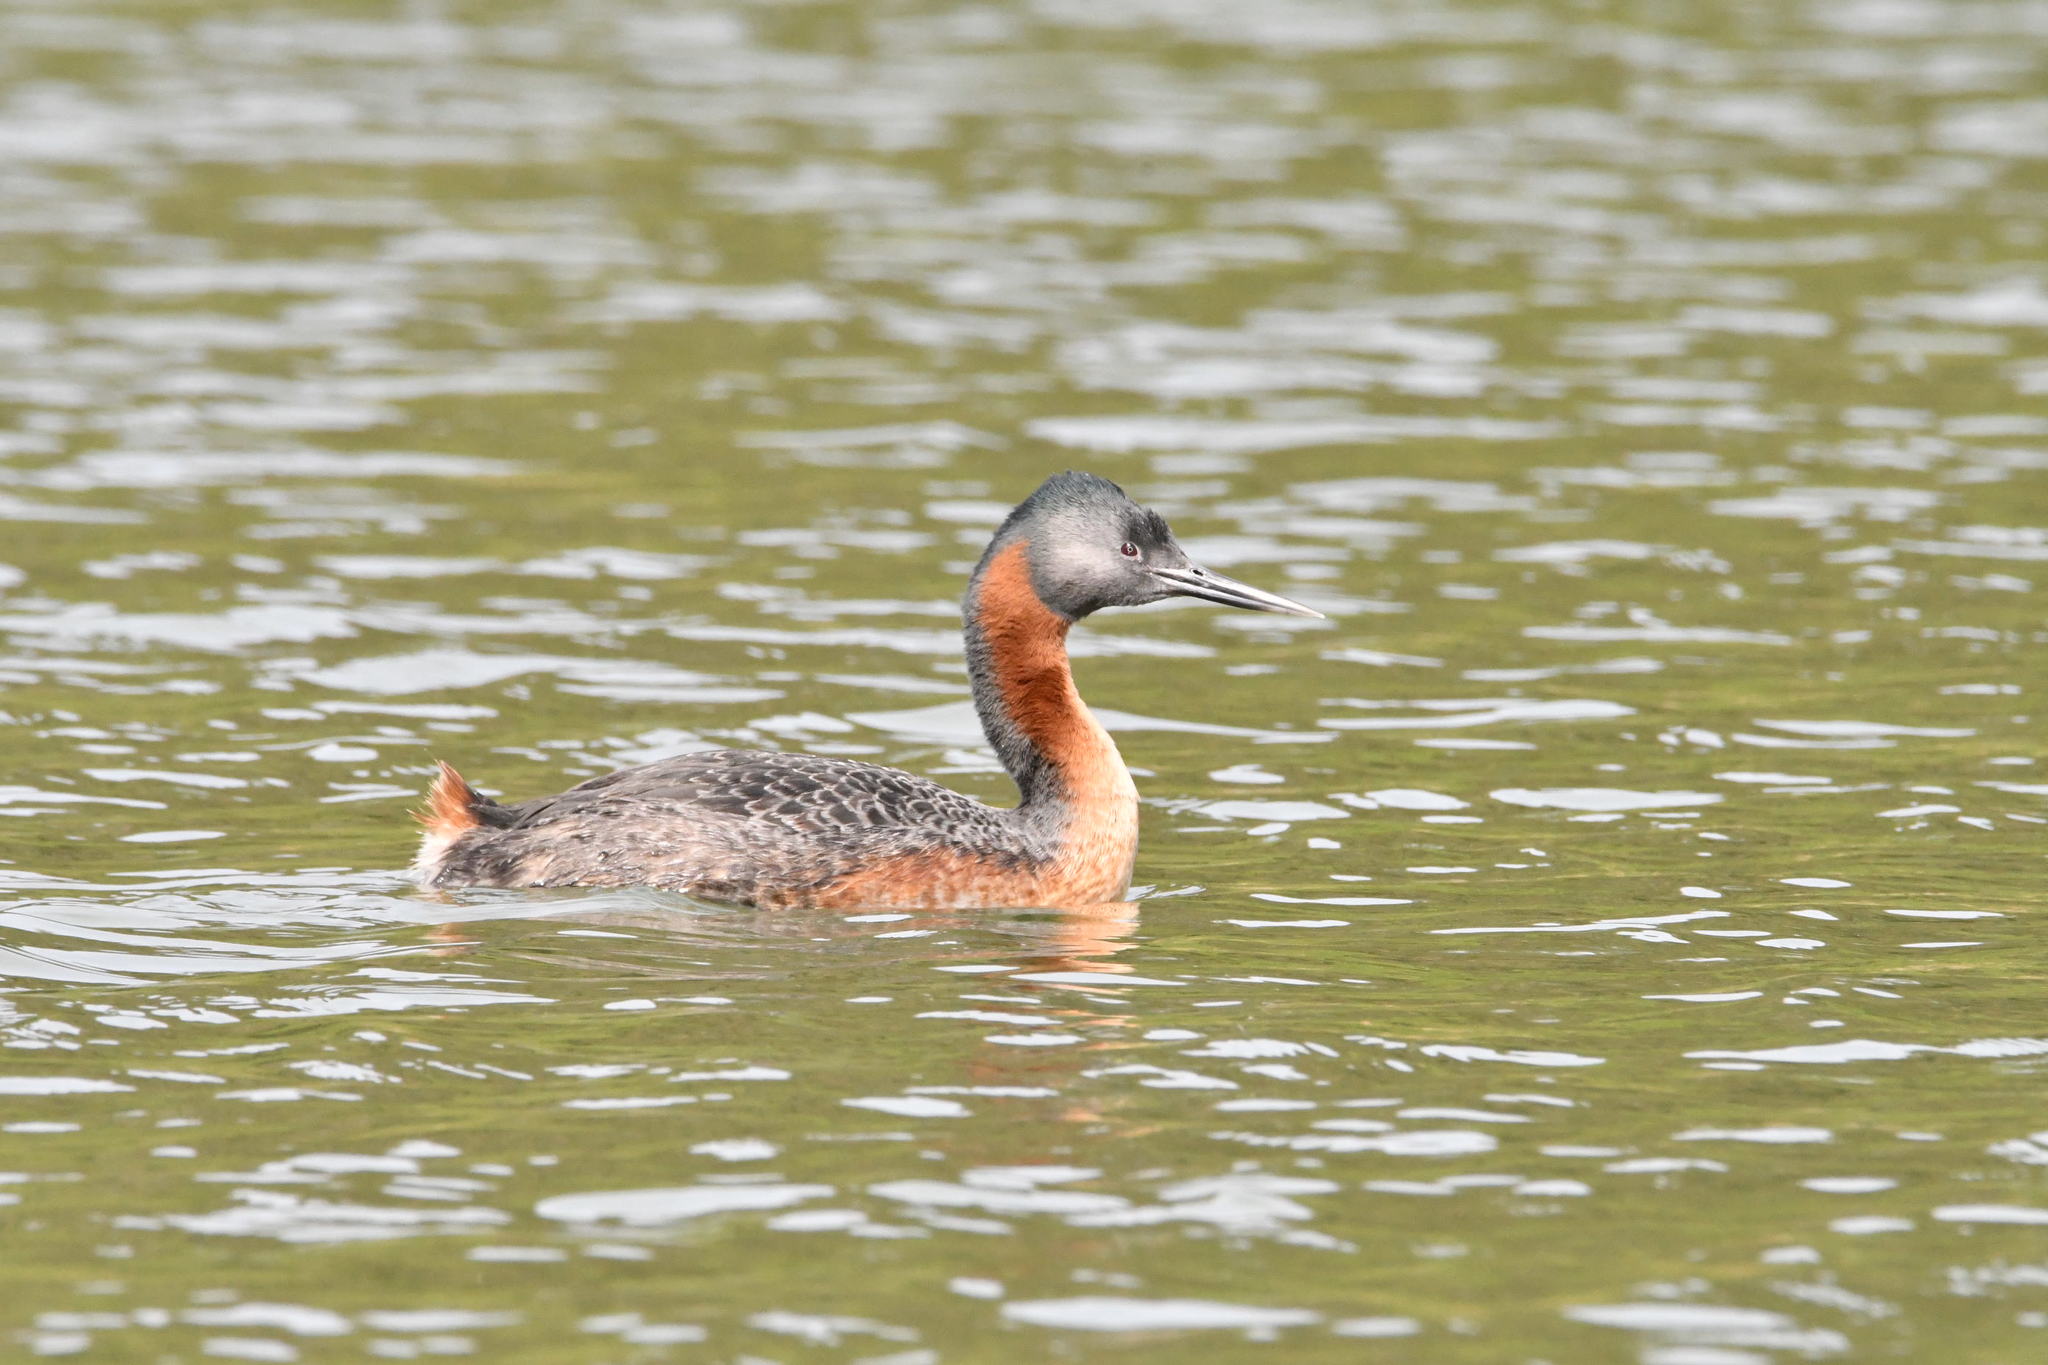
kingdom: Animalia
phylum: Chordata
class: Aves
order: Podicipediformes
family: Podicipedidae
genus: Podiceps
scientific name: Podiceps major
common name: Great grebe
